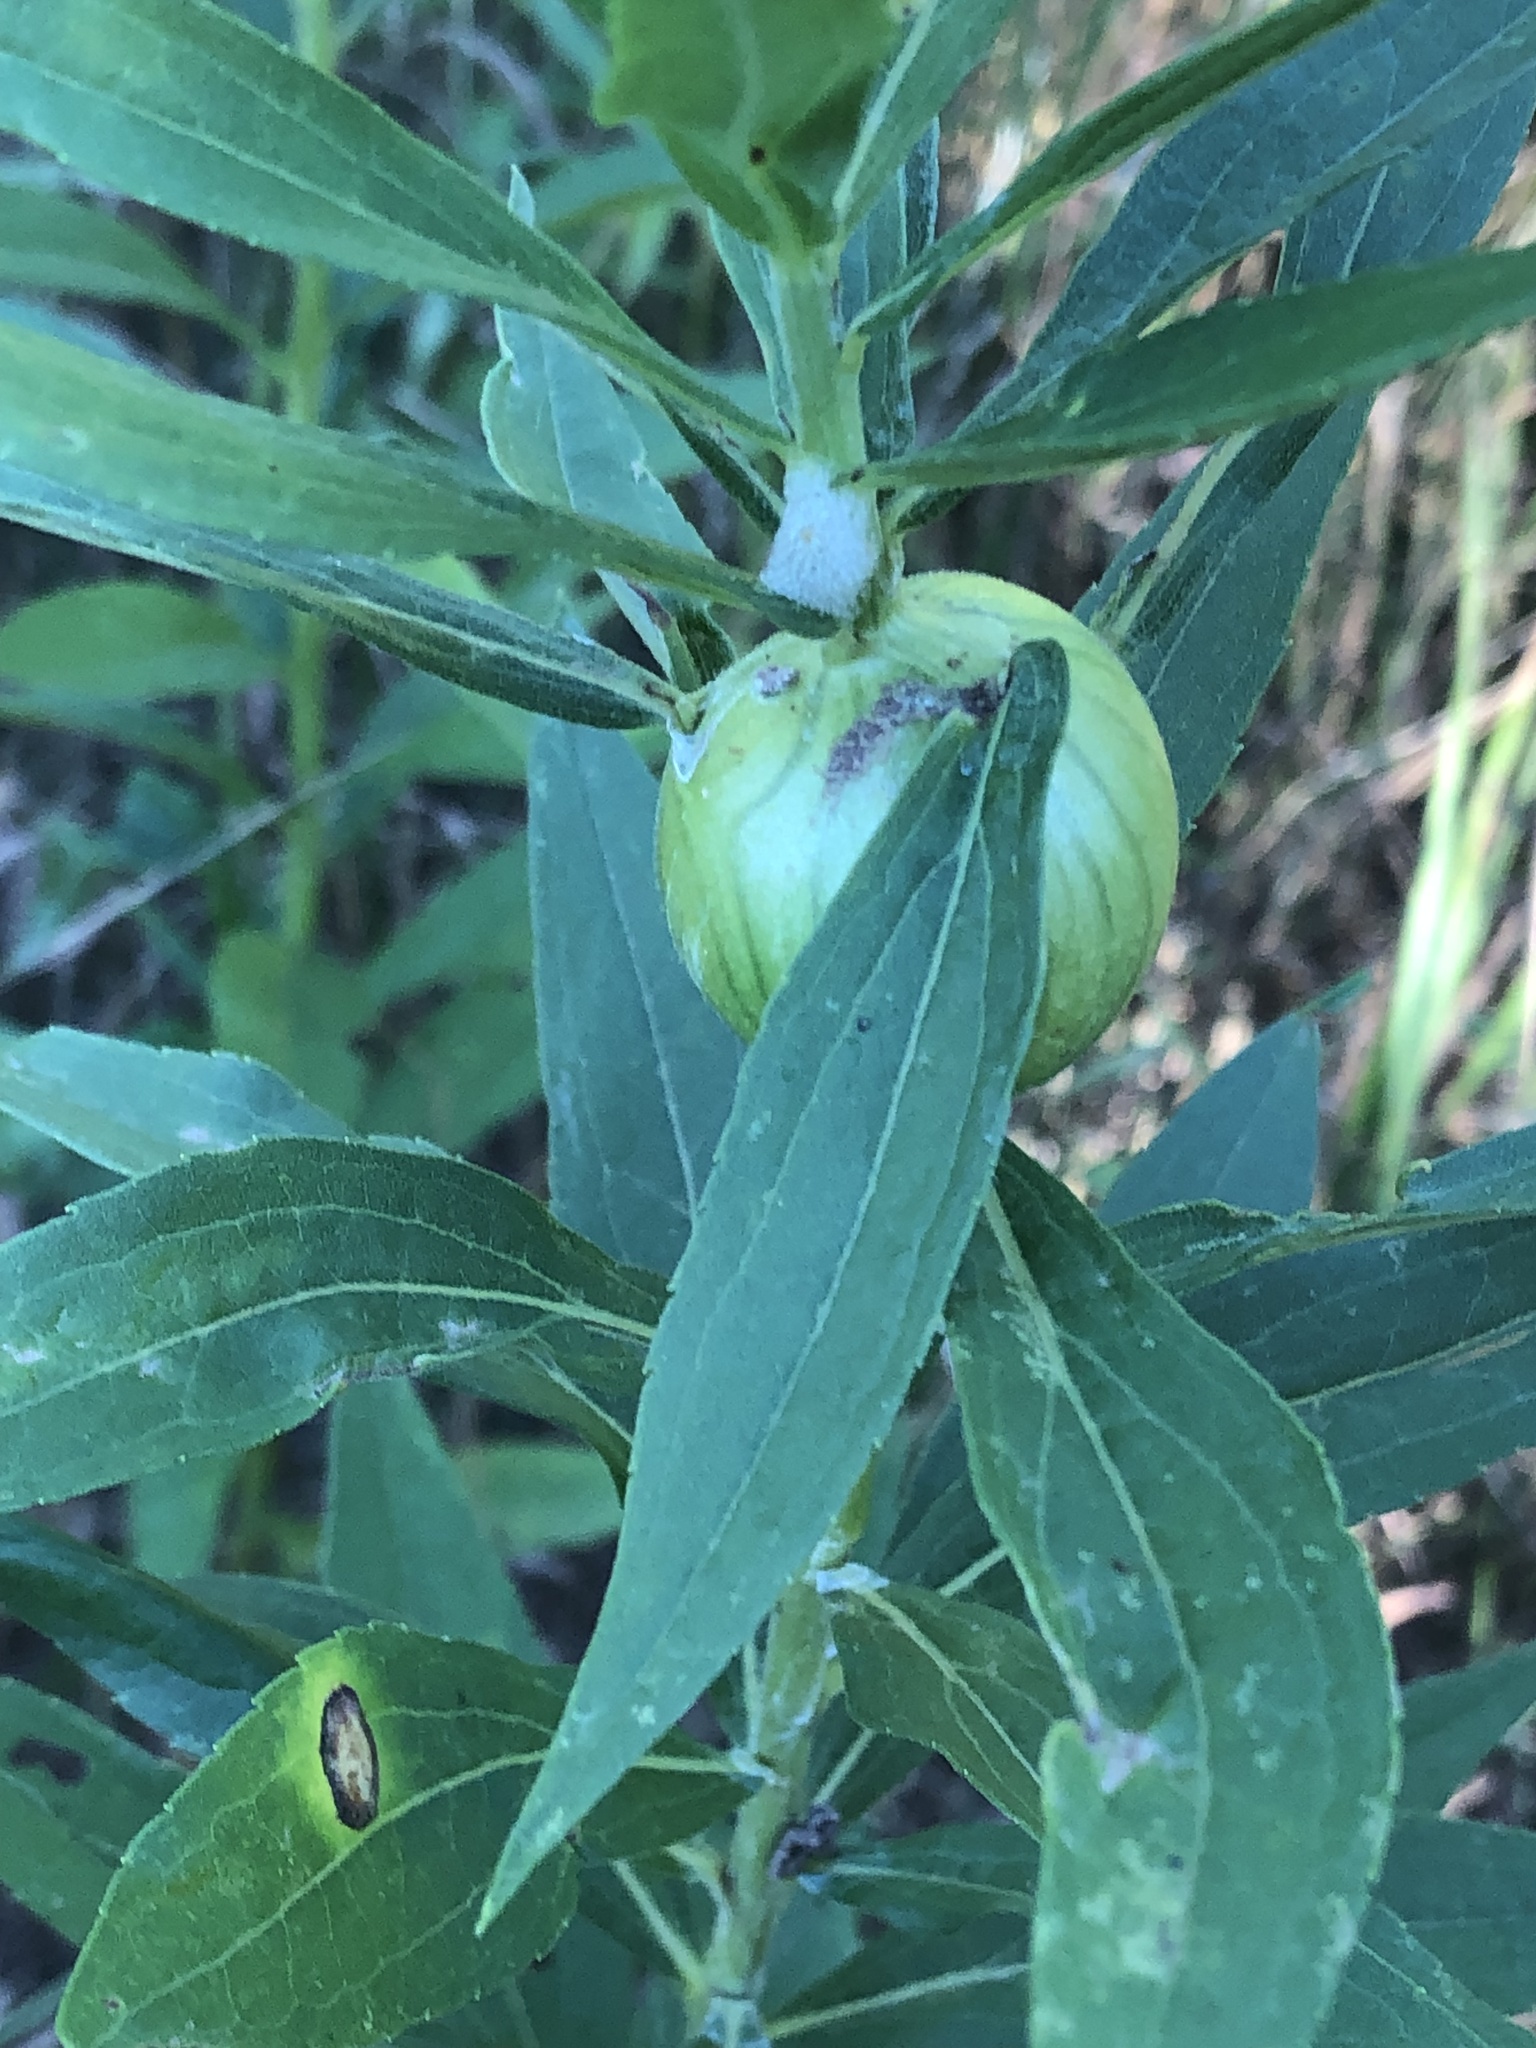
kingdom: Animalia
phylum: Arthropoda
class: Insecta
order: Diptera
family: Tephritidae
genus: Eurosta
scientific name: Eurosta solidaginis
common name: Goldenrod gall fly
